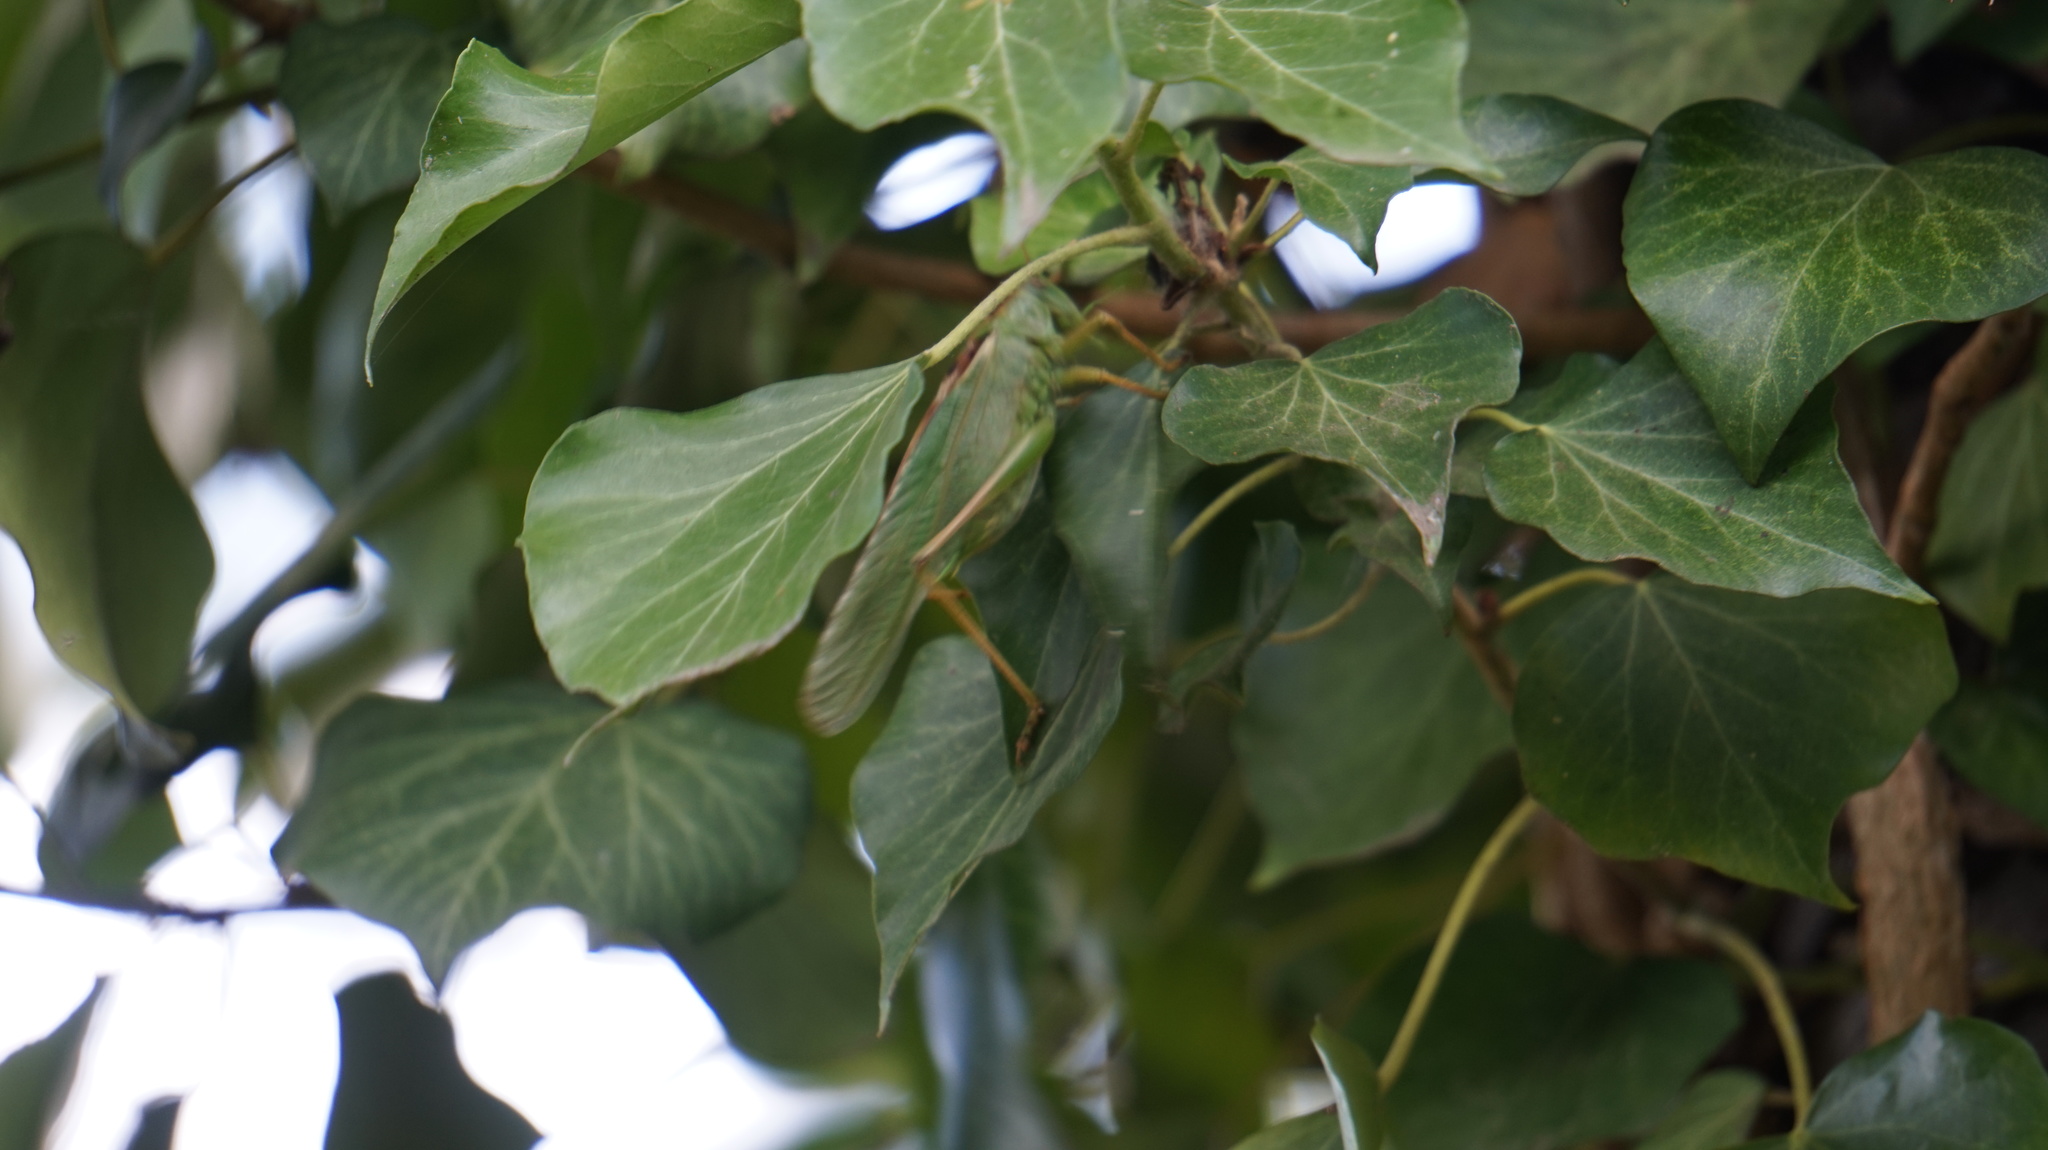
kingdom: Animalia
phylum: Arthropoda
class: Insecta
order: Orthoptera
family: Tettigoniidae
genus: Tettigonia
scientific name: Tettigonia viridissima
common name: Great green bush-cricket
